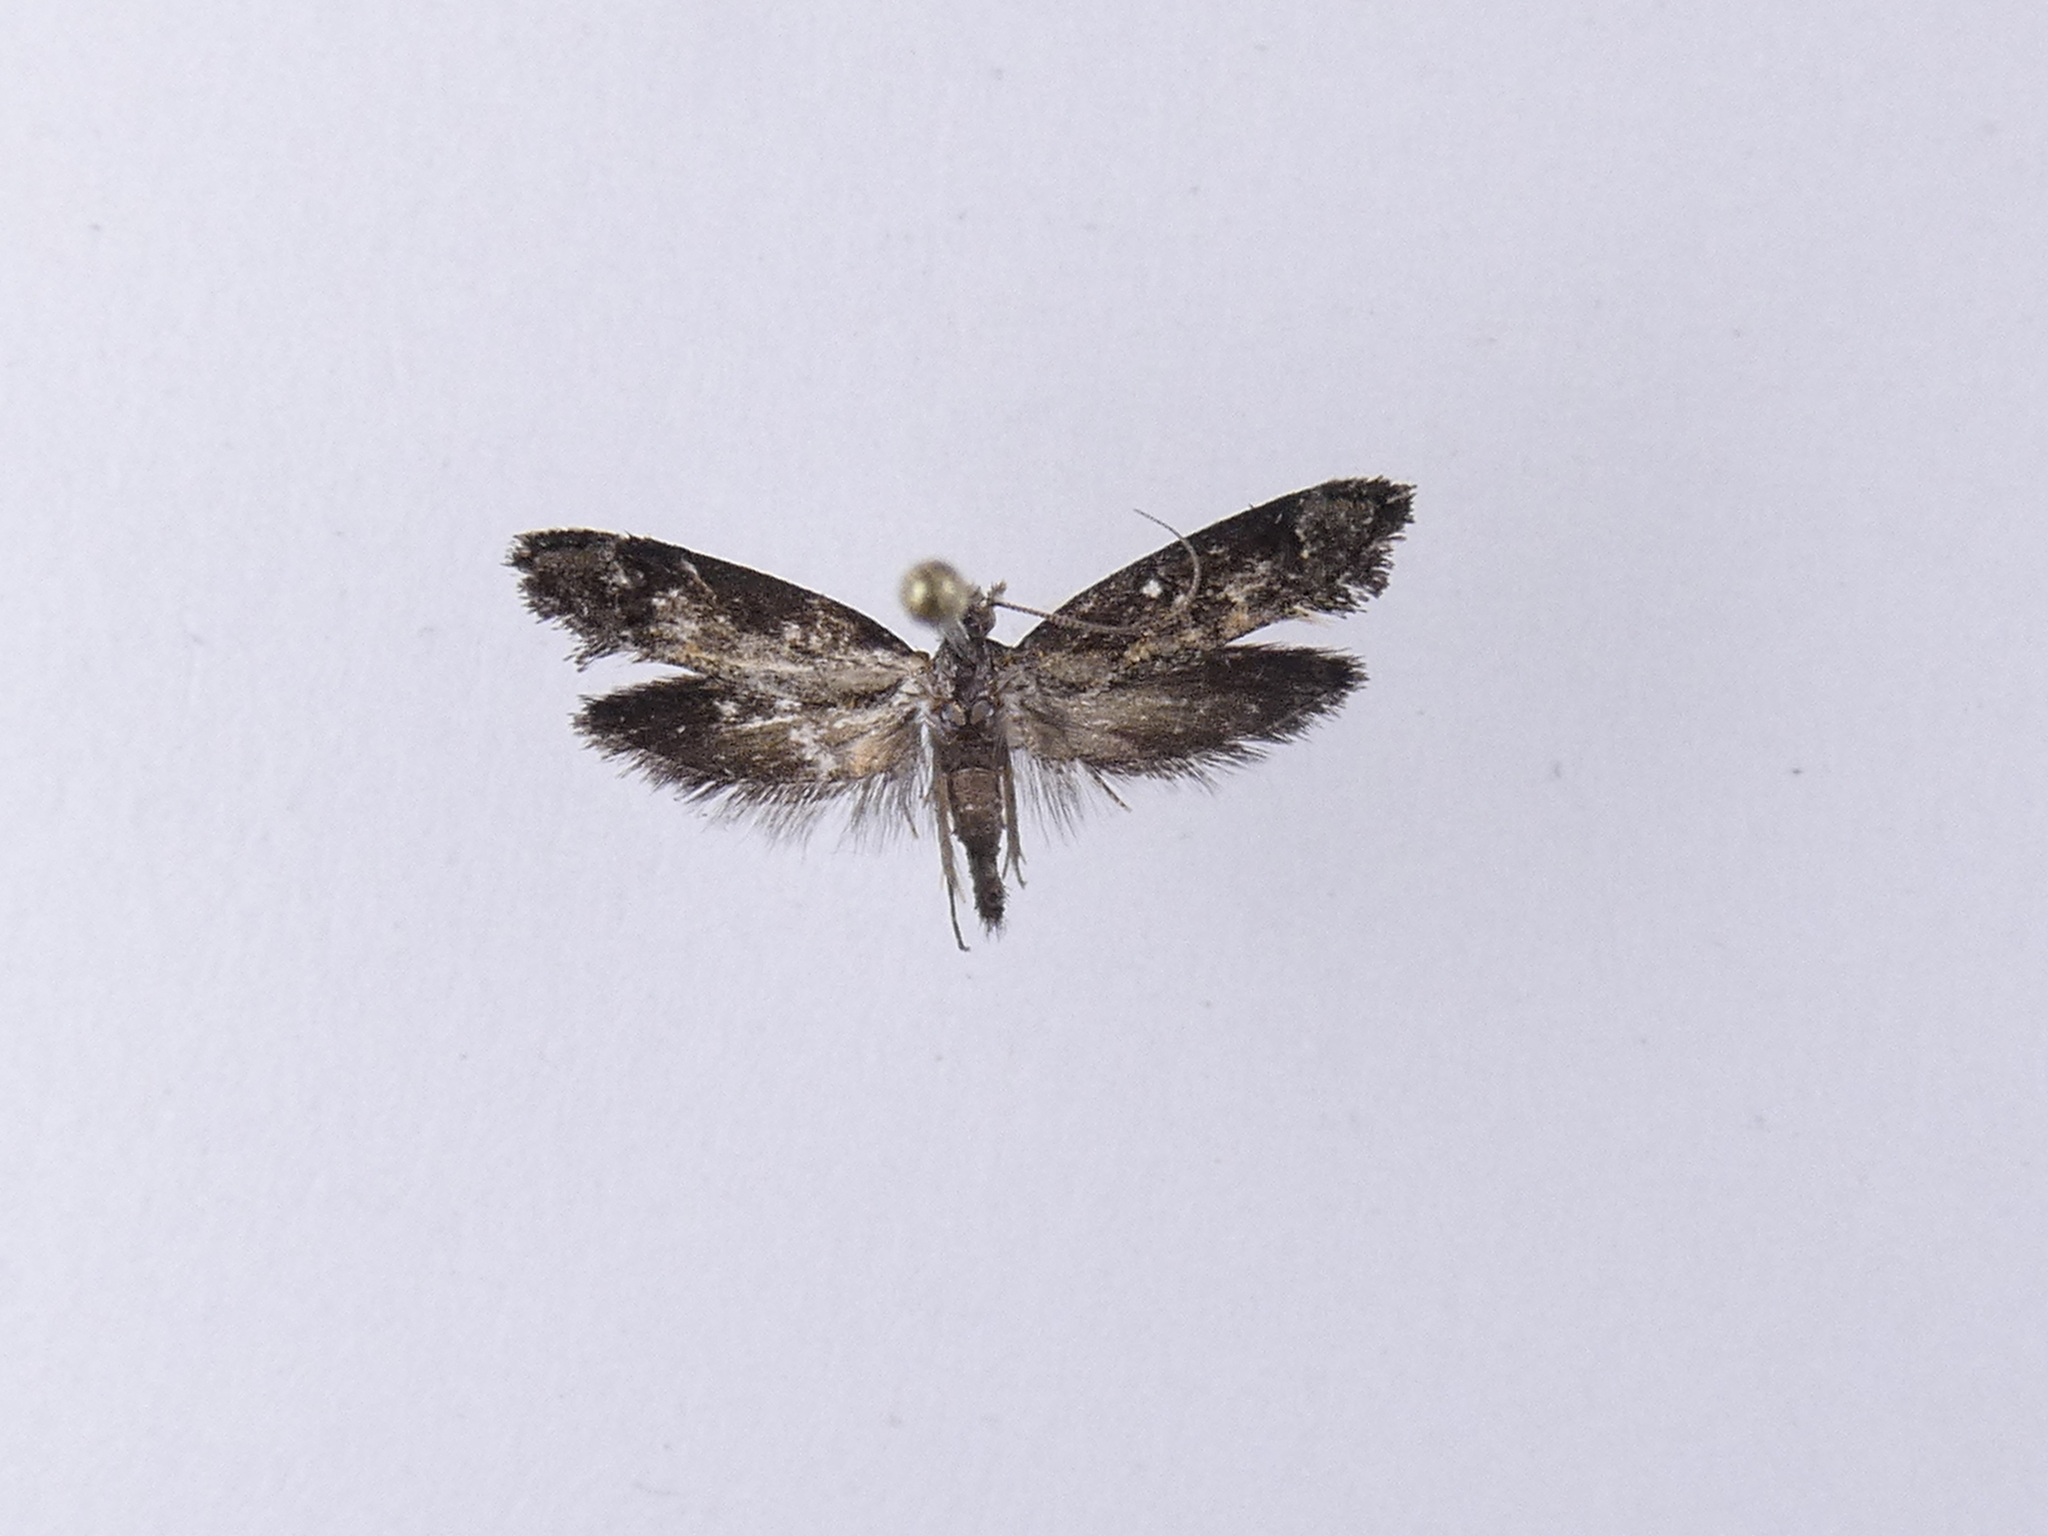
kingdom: Animalia
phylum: Arthropoda
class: Insecta
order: Lepidoptera
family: Tineidae
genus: Trithamnora
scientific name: Trithamnora certella
